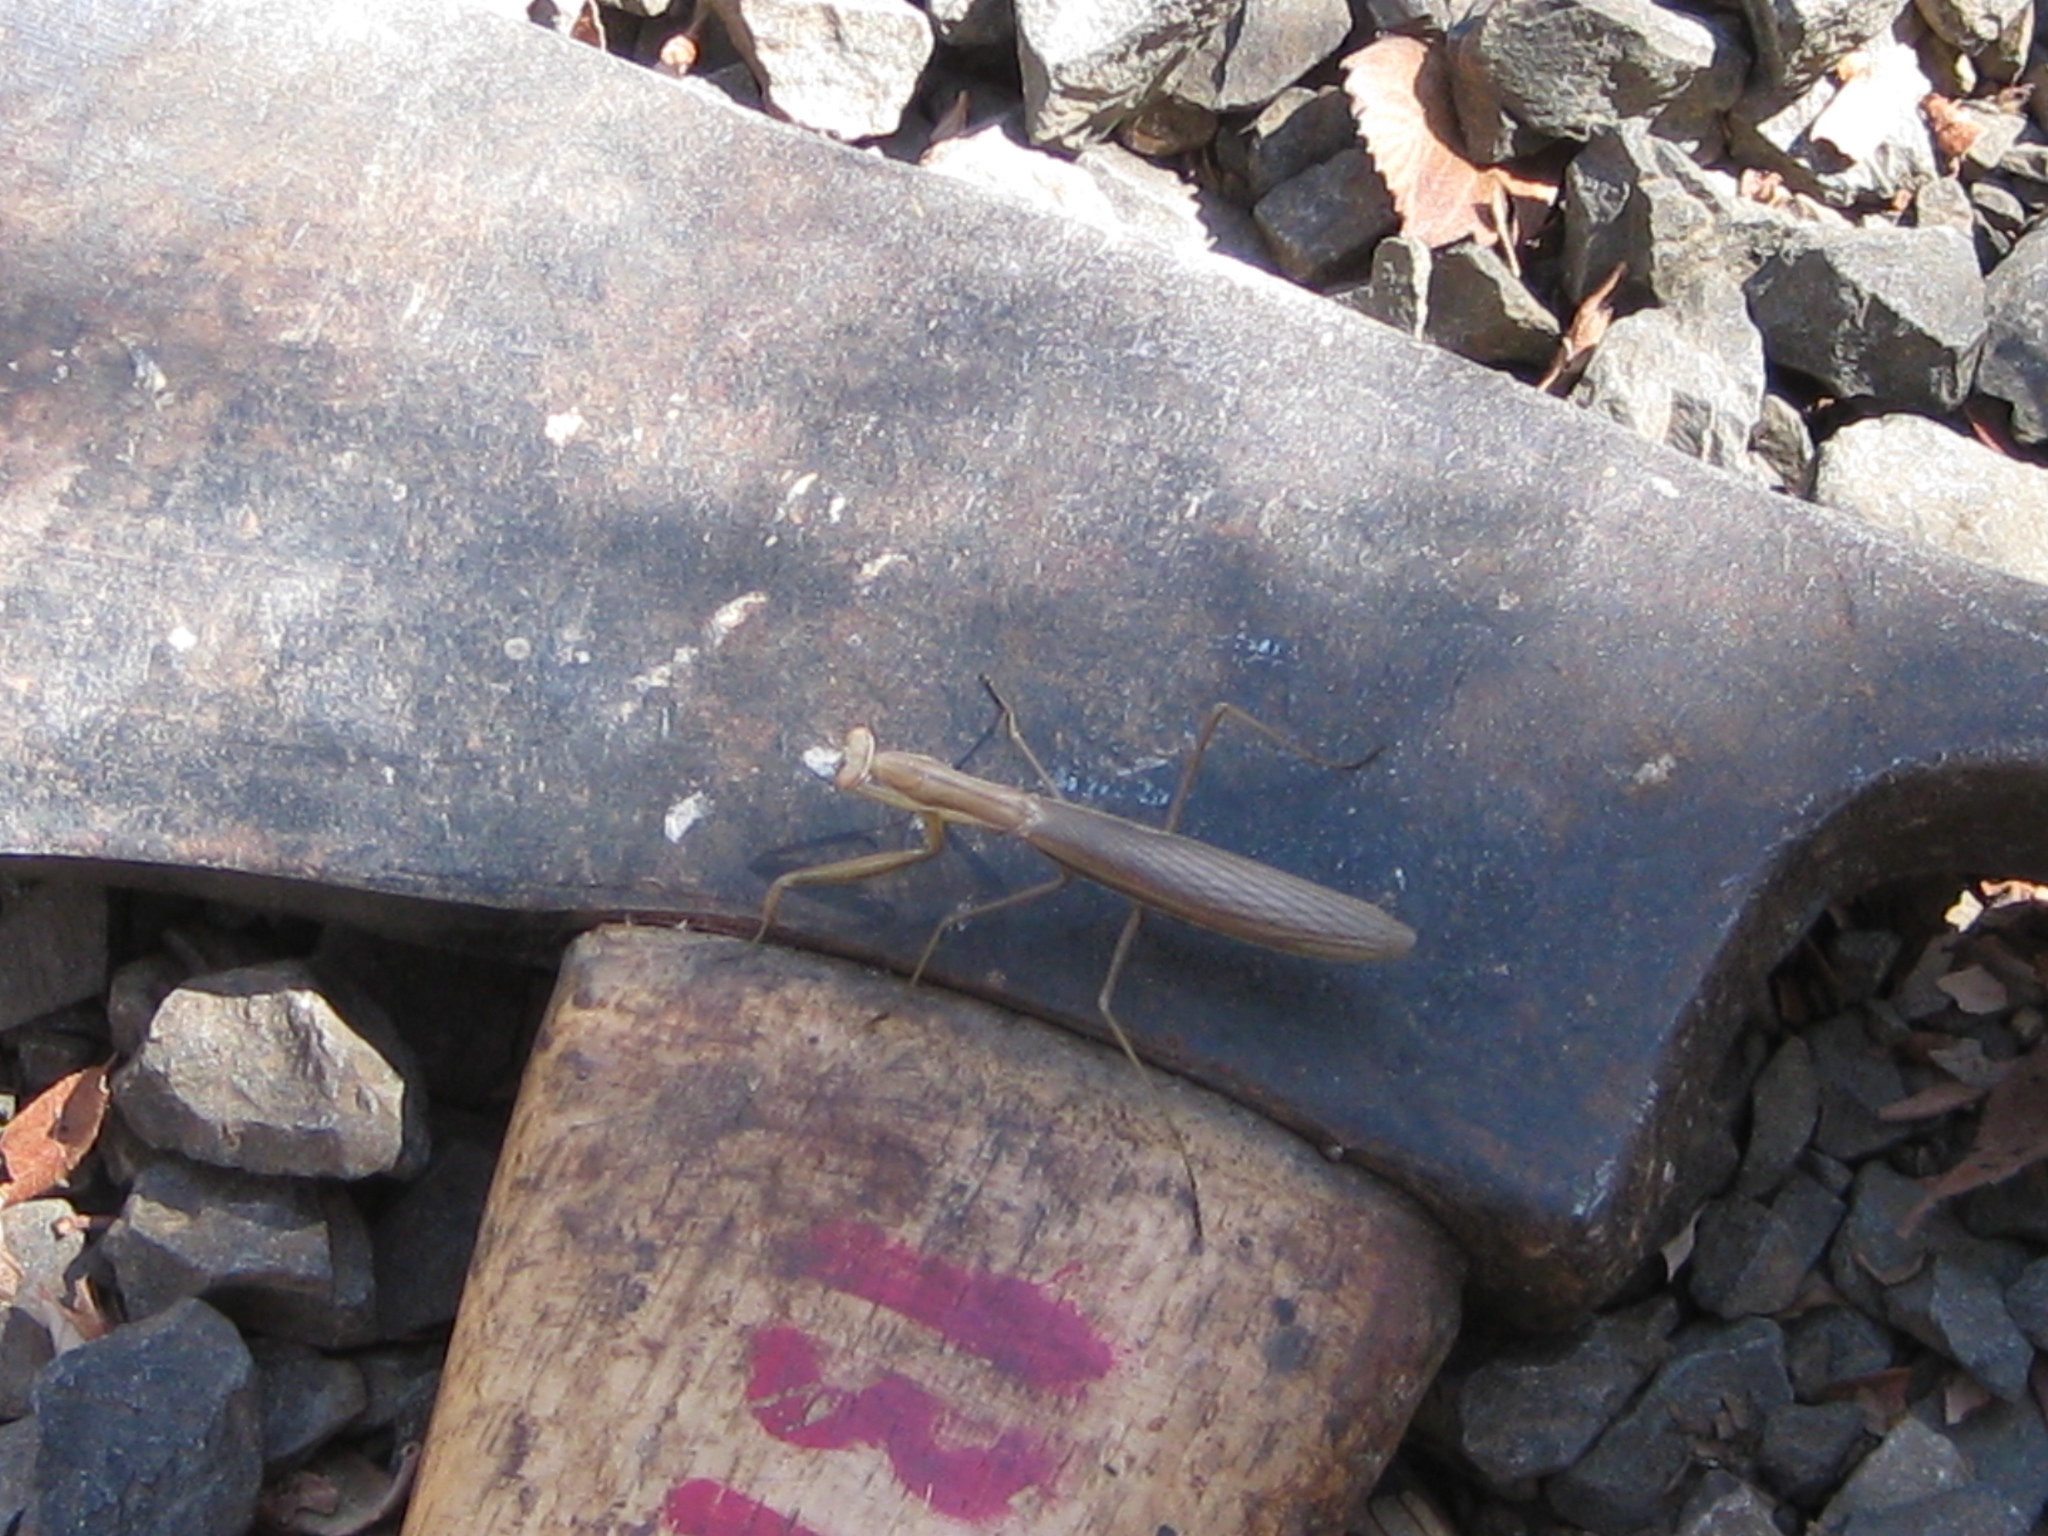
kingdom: Animalia
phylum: Arthropoda
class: Insecta
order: Mantodea
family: Mantidae
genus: Mantis
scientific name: Mantis religiosa
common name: Praying mantis
